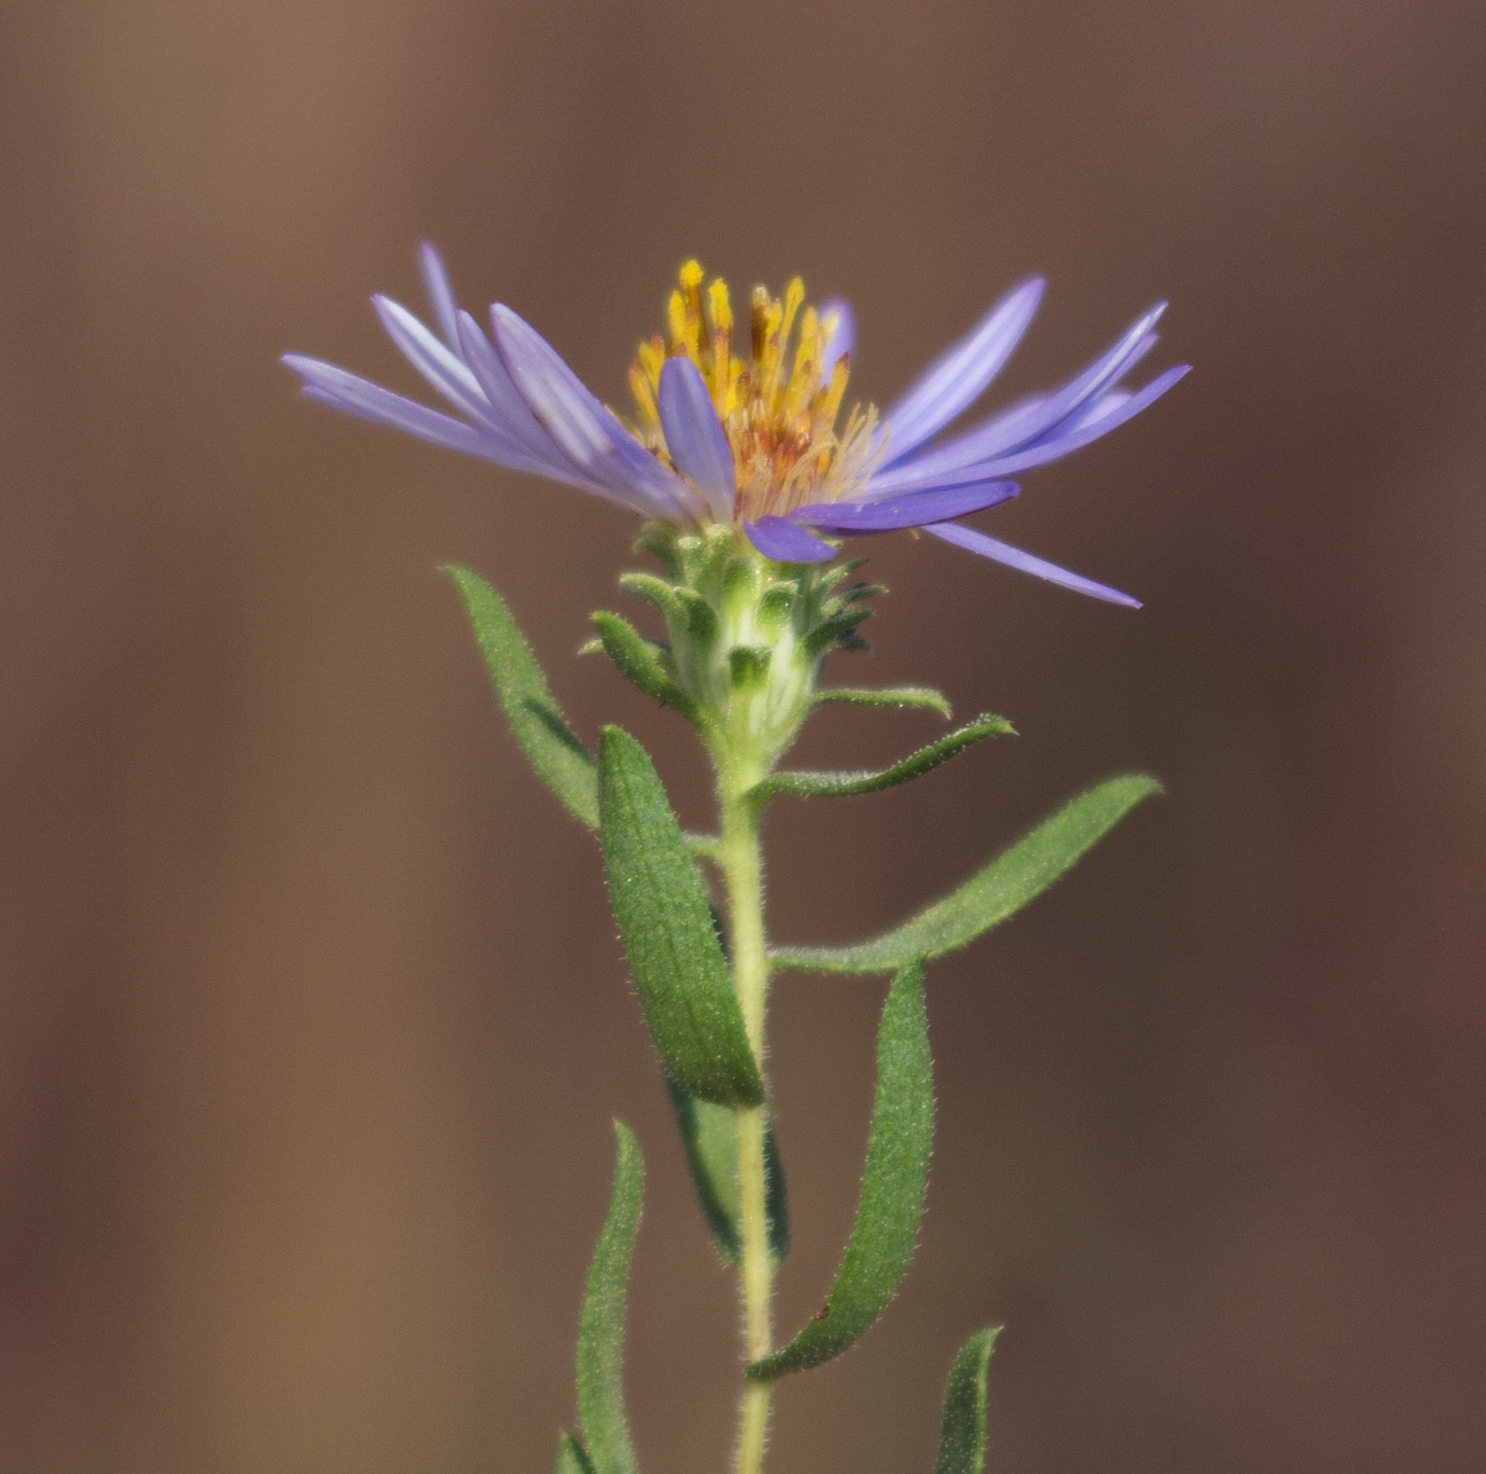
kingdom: Plantae
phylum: Tracheophyta
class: Magnoliopsida
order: Asterales
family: Asteraceae
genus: Symphyotrichum
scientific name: Symphyotrichum oblongifolium
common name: Aromatic aster
